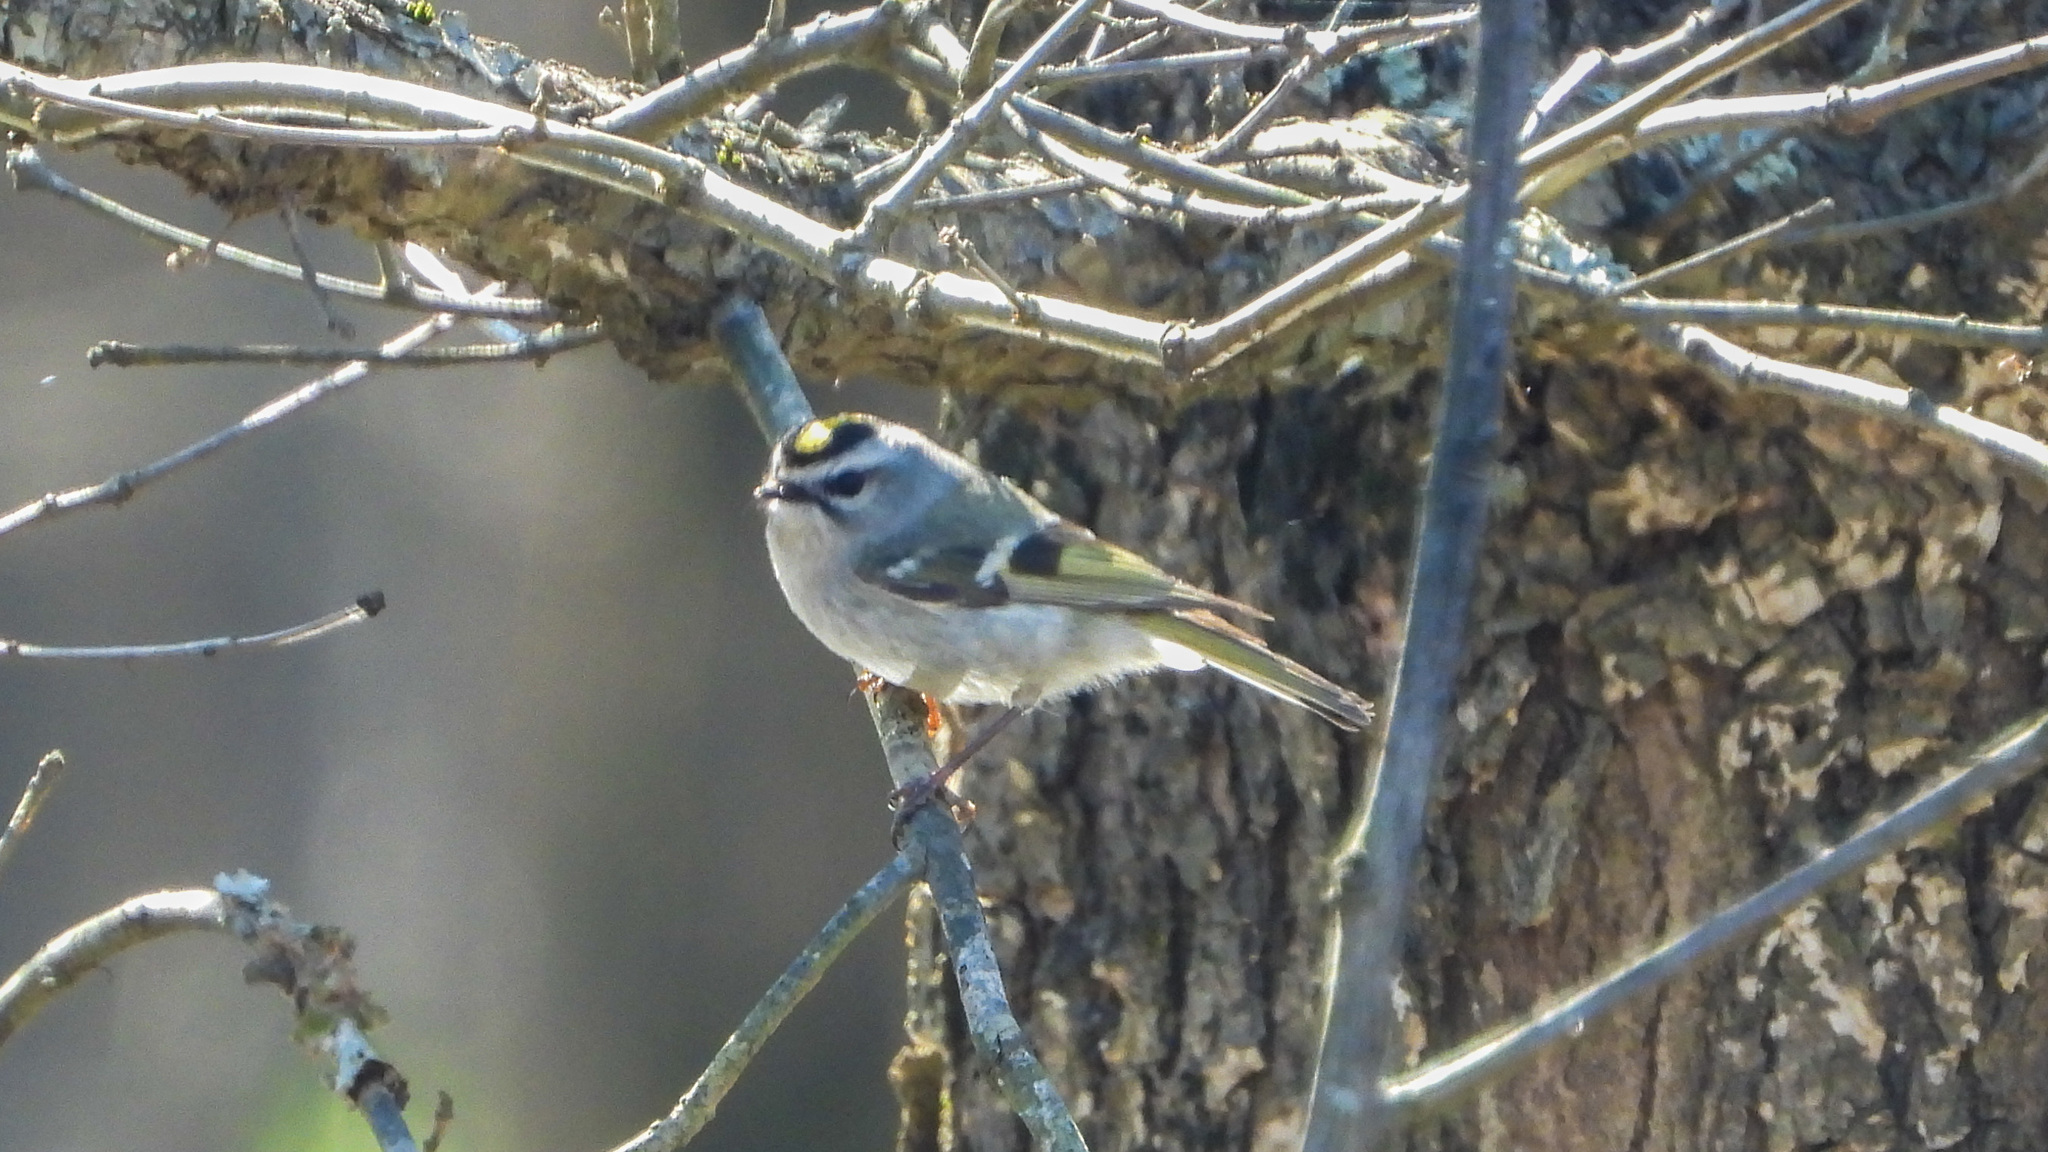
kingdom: Animalia
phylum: Chordata
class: Aves
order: Passeriformes
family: Regulidae
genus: Regulus
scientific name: Regulus satrapa
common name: Golden-crowned kinglet
